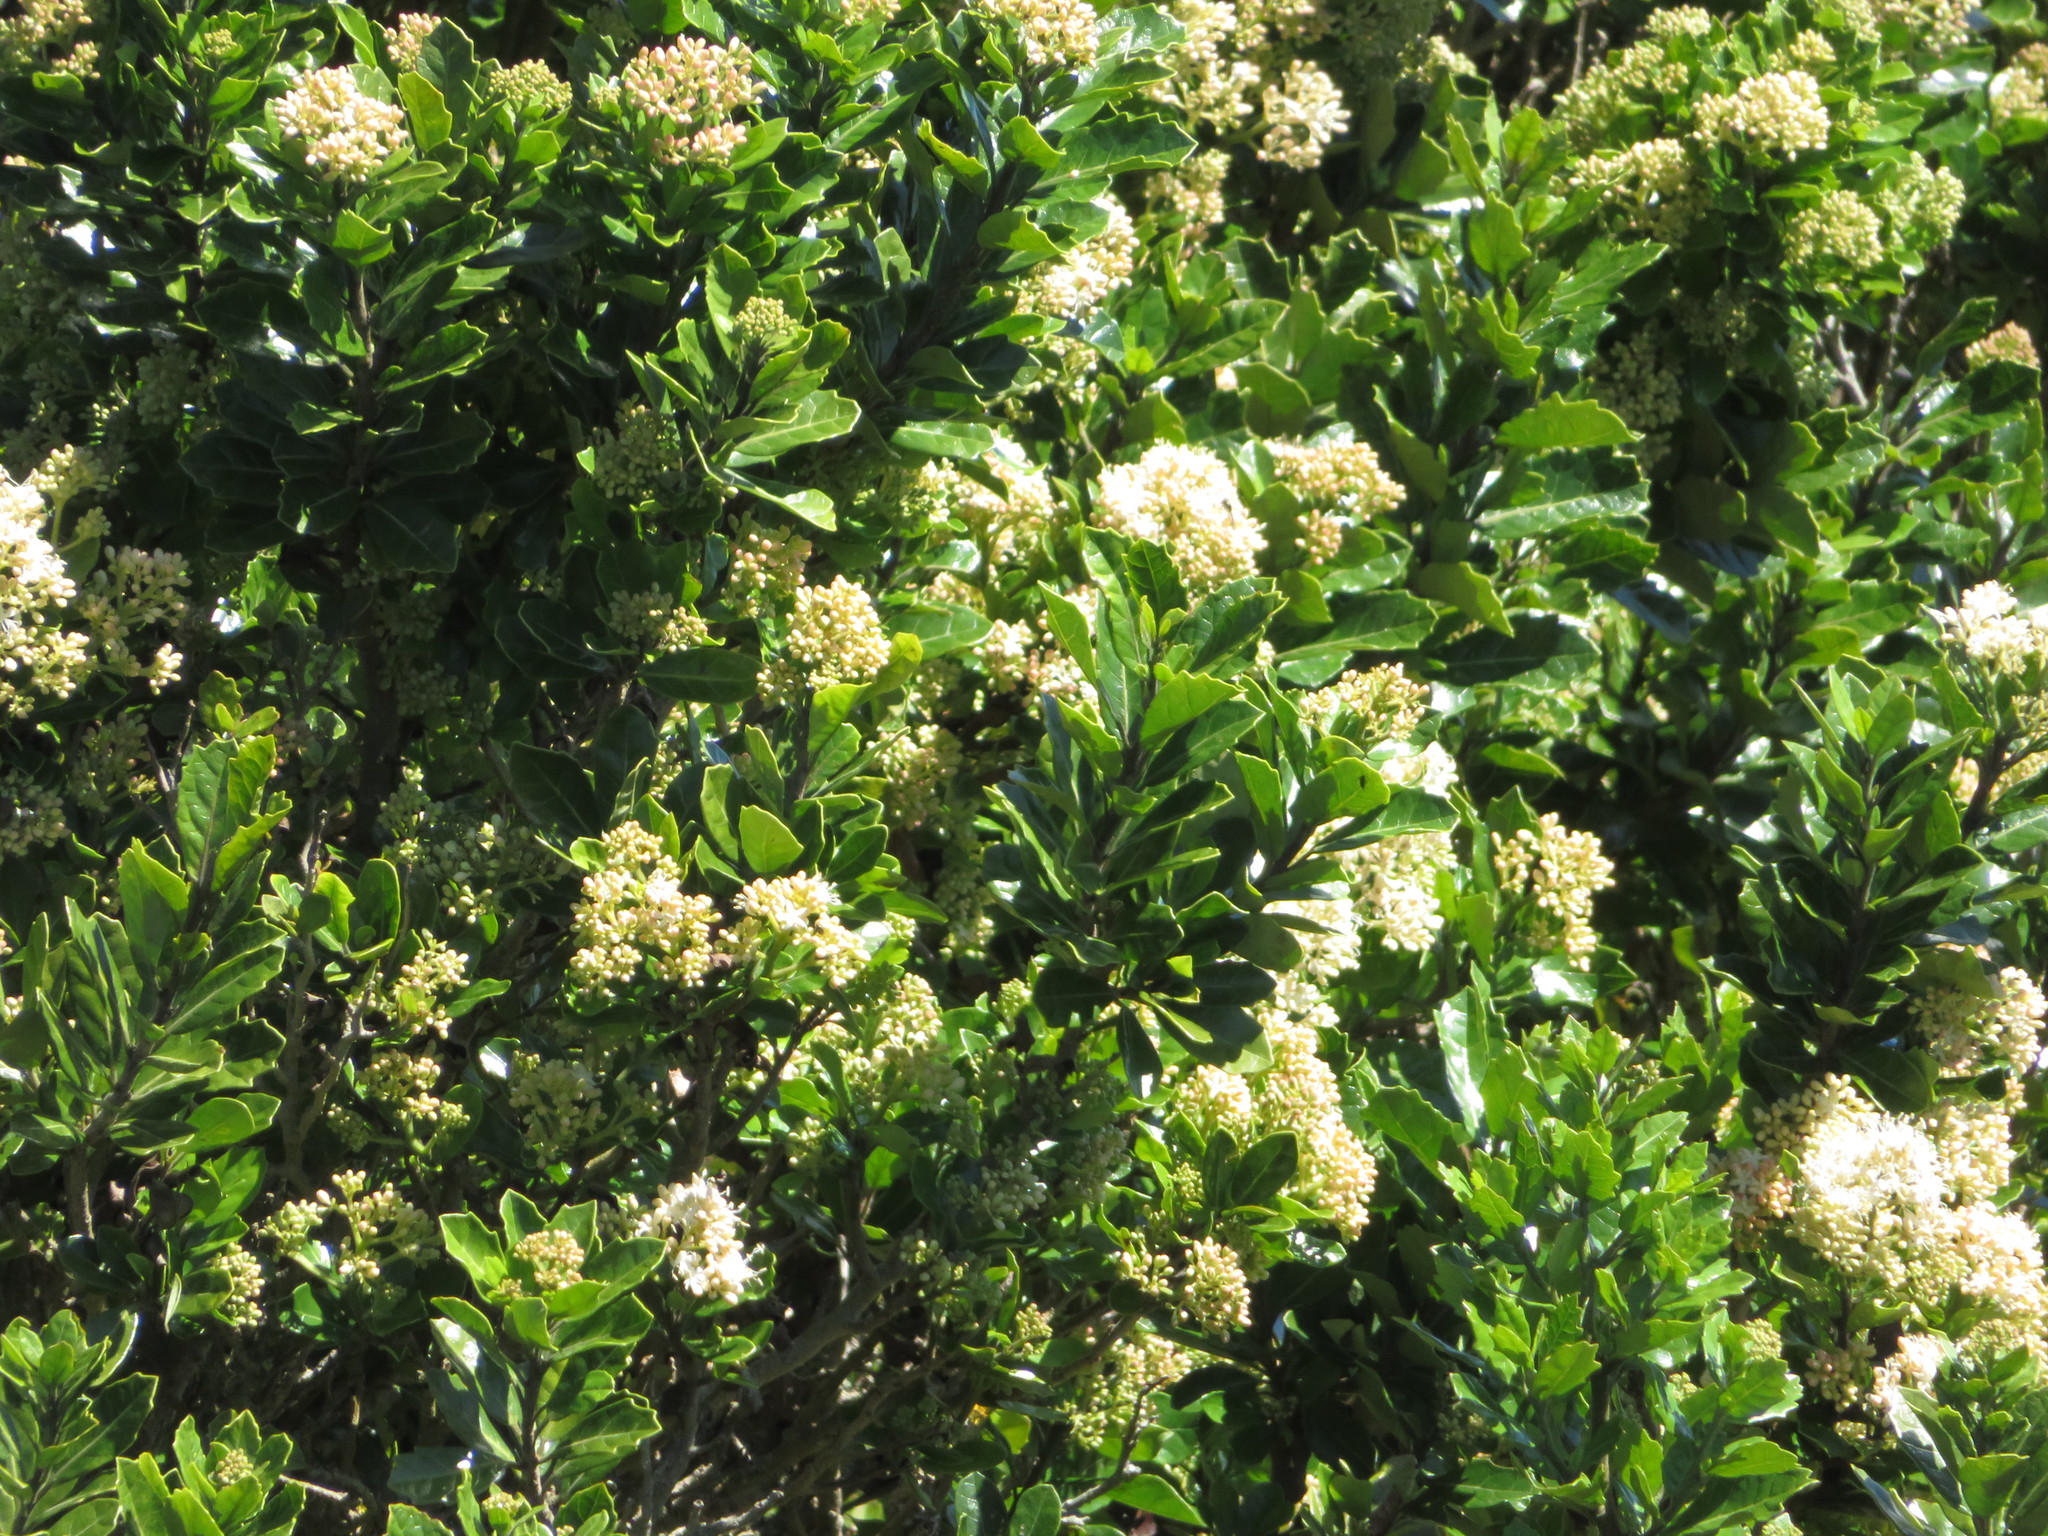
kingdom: Plantae
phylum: Tracheophyta
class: Magnoliopsida
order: Apiales
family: Pennantiaceae
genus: Pennantia
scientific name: Pennantia corymbosa
